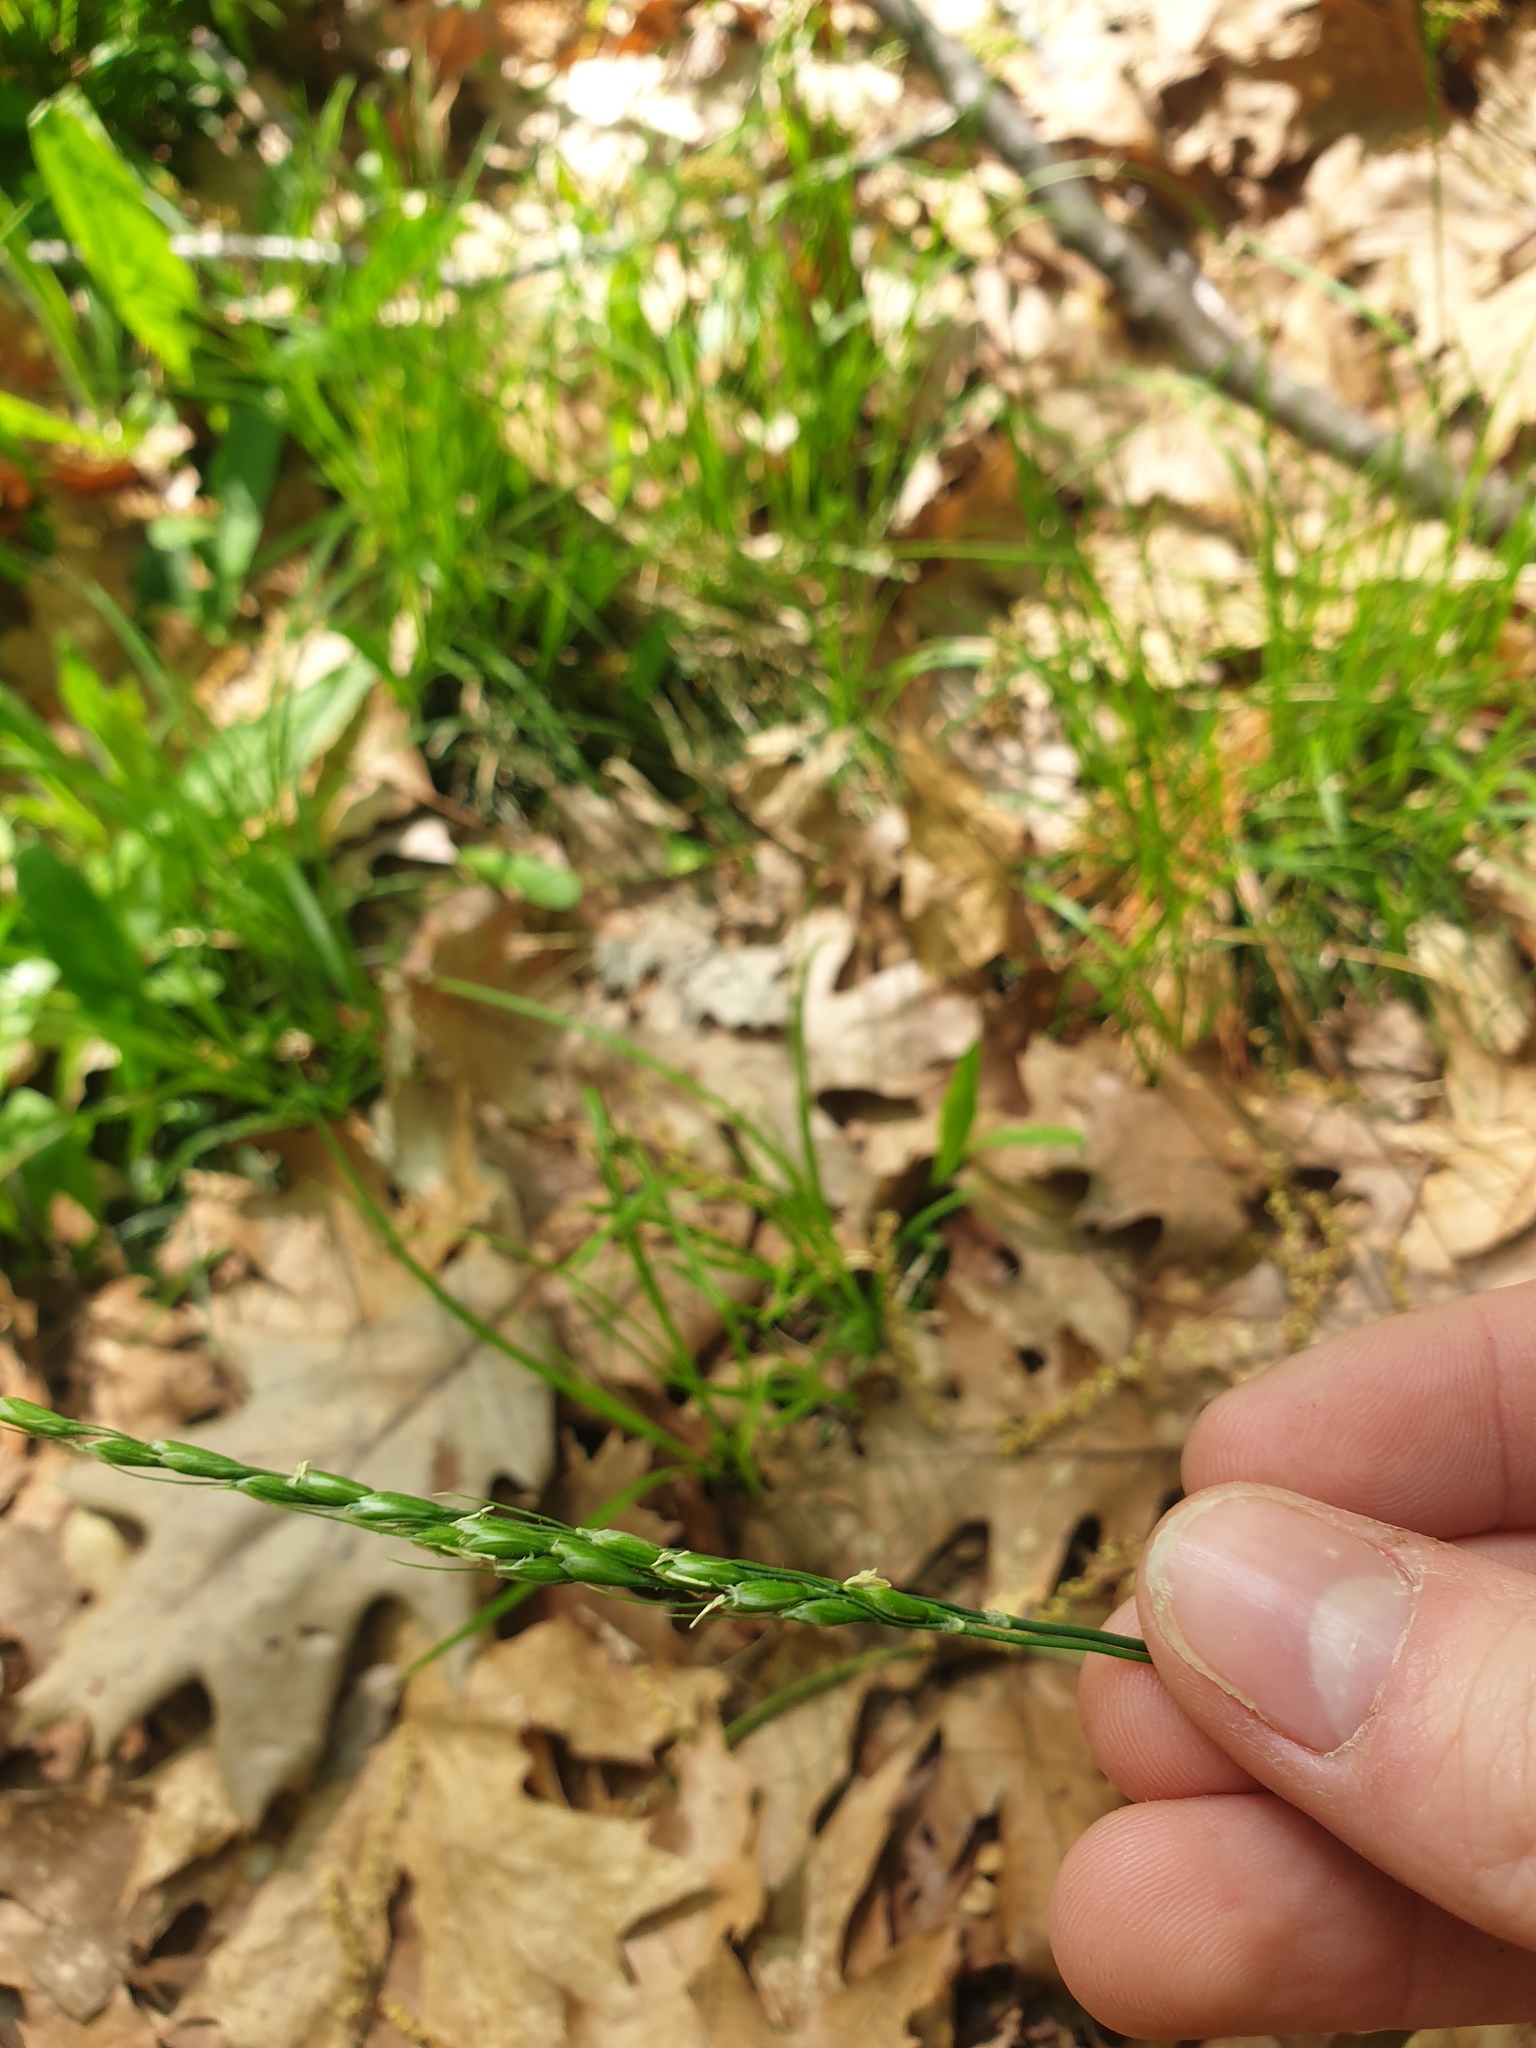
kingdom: Plantae
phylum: Tracheophyta
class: Liliopsida
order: Poales
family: Poaceae
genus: Oryzopsis
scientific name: Oryzopsis asperifolia
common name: Rough-leaved mountain rice
